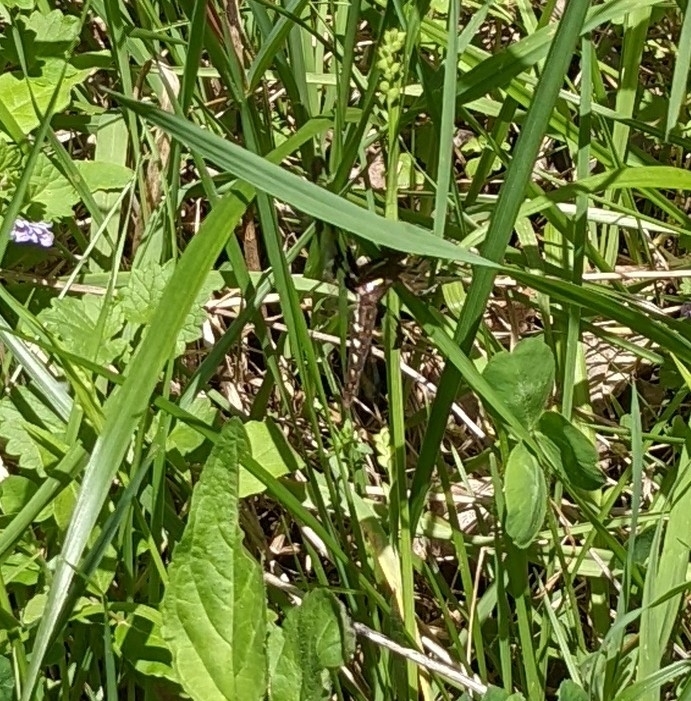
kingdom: Animalia
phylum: Arthropoda
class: Insecta
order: Odonata
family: Libellulidae
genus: Plathemis
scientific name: Plathemis lydia
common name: Common whitetail
